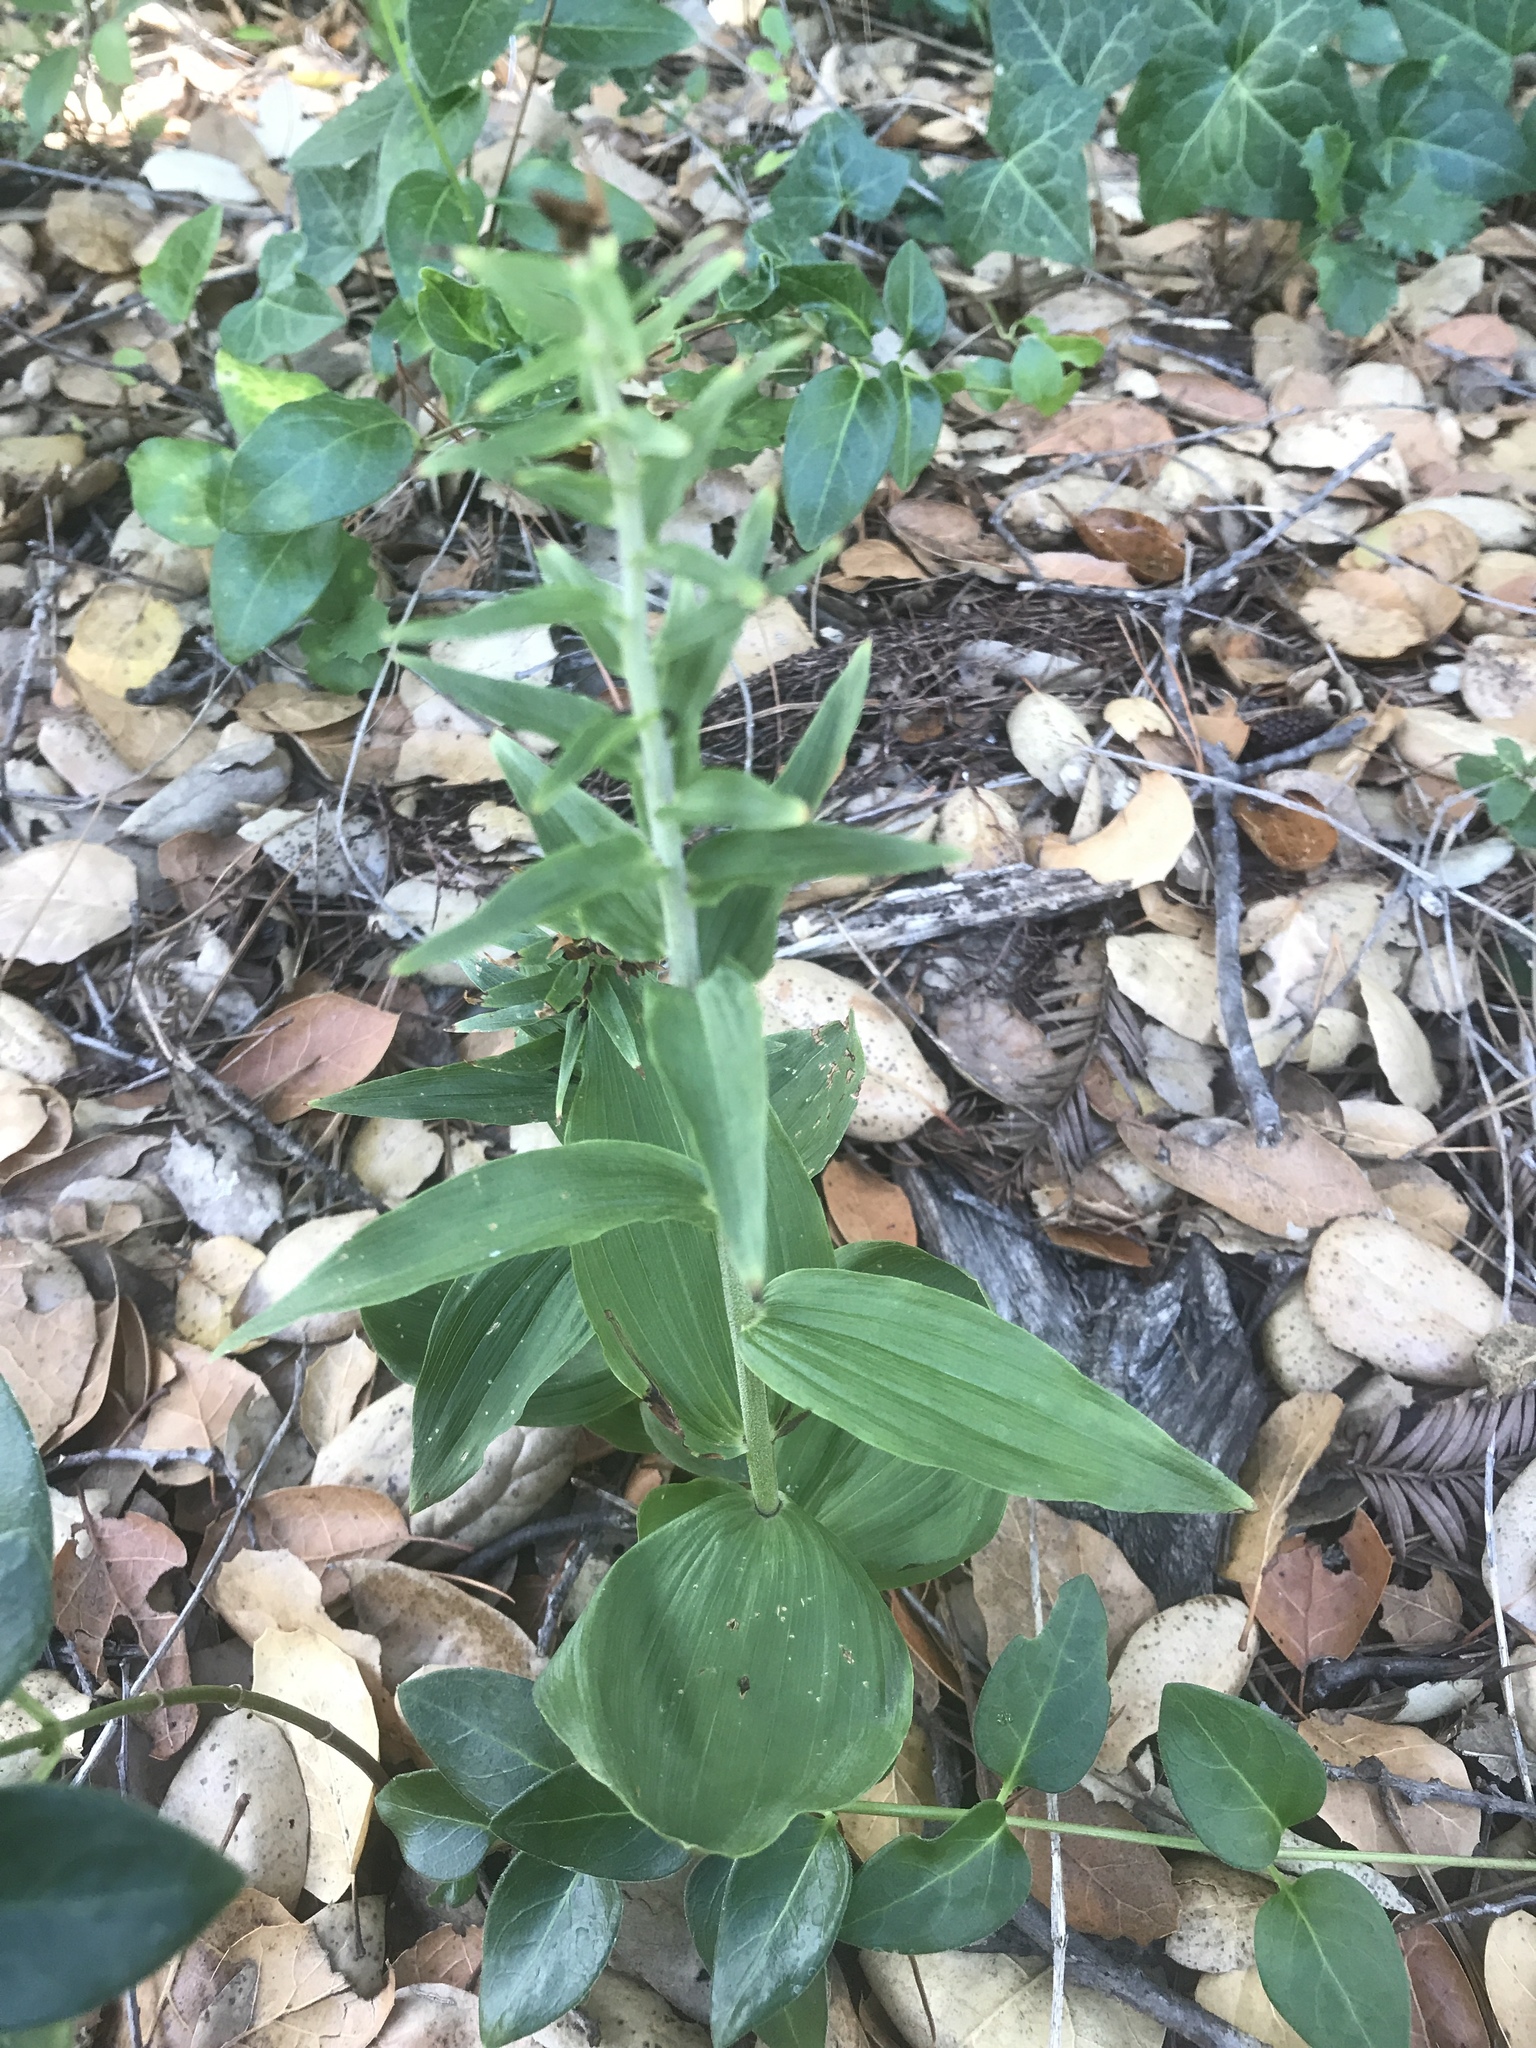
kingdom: Plantae
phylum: Tracheophyta
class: Liliopsida
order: Asparagales
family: Orchidaceae
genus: Epipactis
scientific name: Epipactis helleborine
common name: Broad-leaved helleborine
